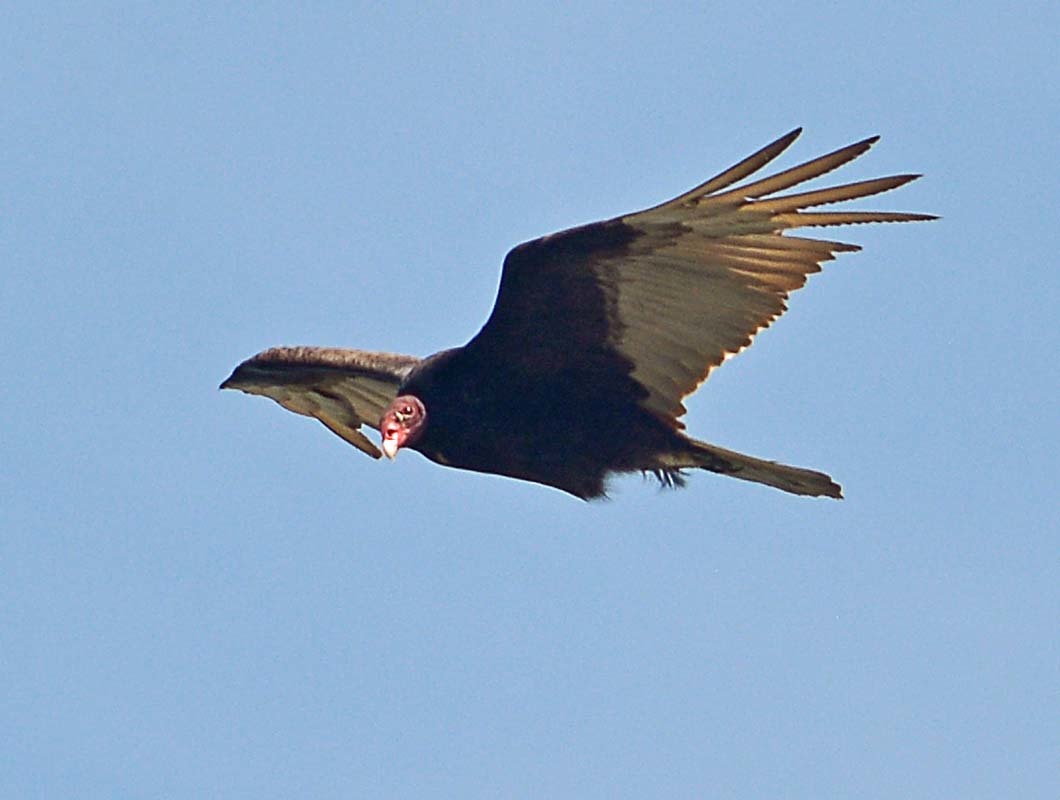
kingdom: Animalia
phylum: Chordata
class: Aves
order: Accipitriformes
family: Cathartidae
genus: Cathartes
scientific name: Cathartes aura
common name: Turkey vulture
